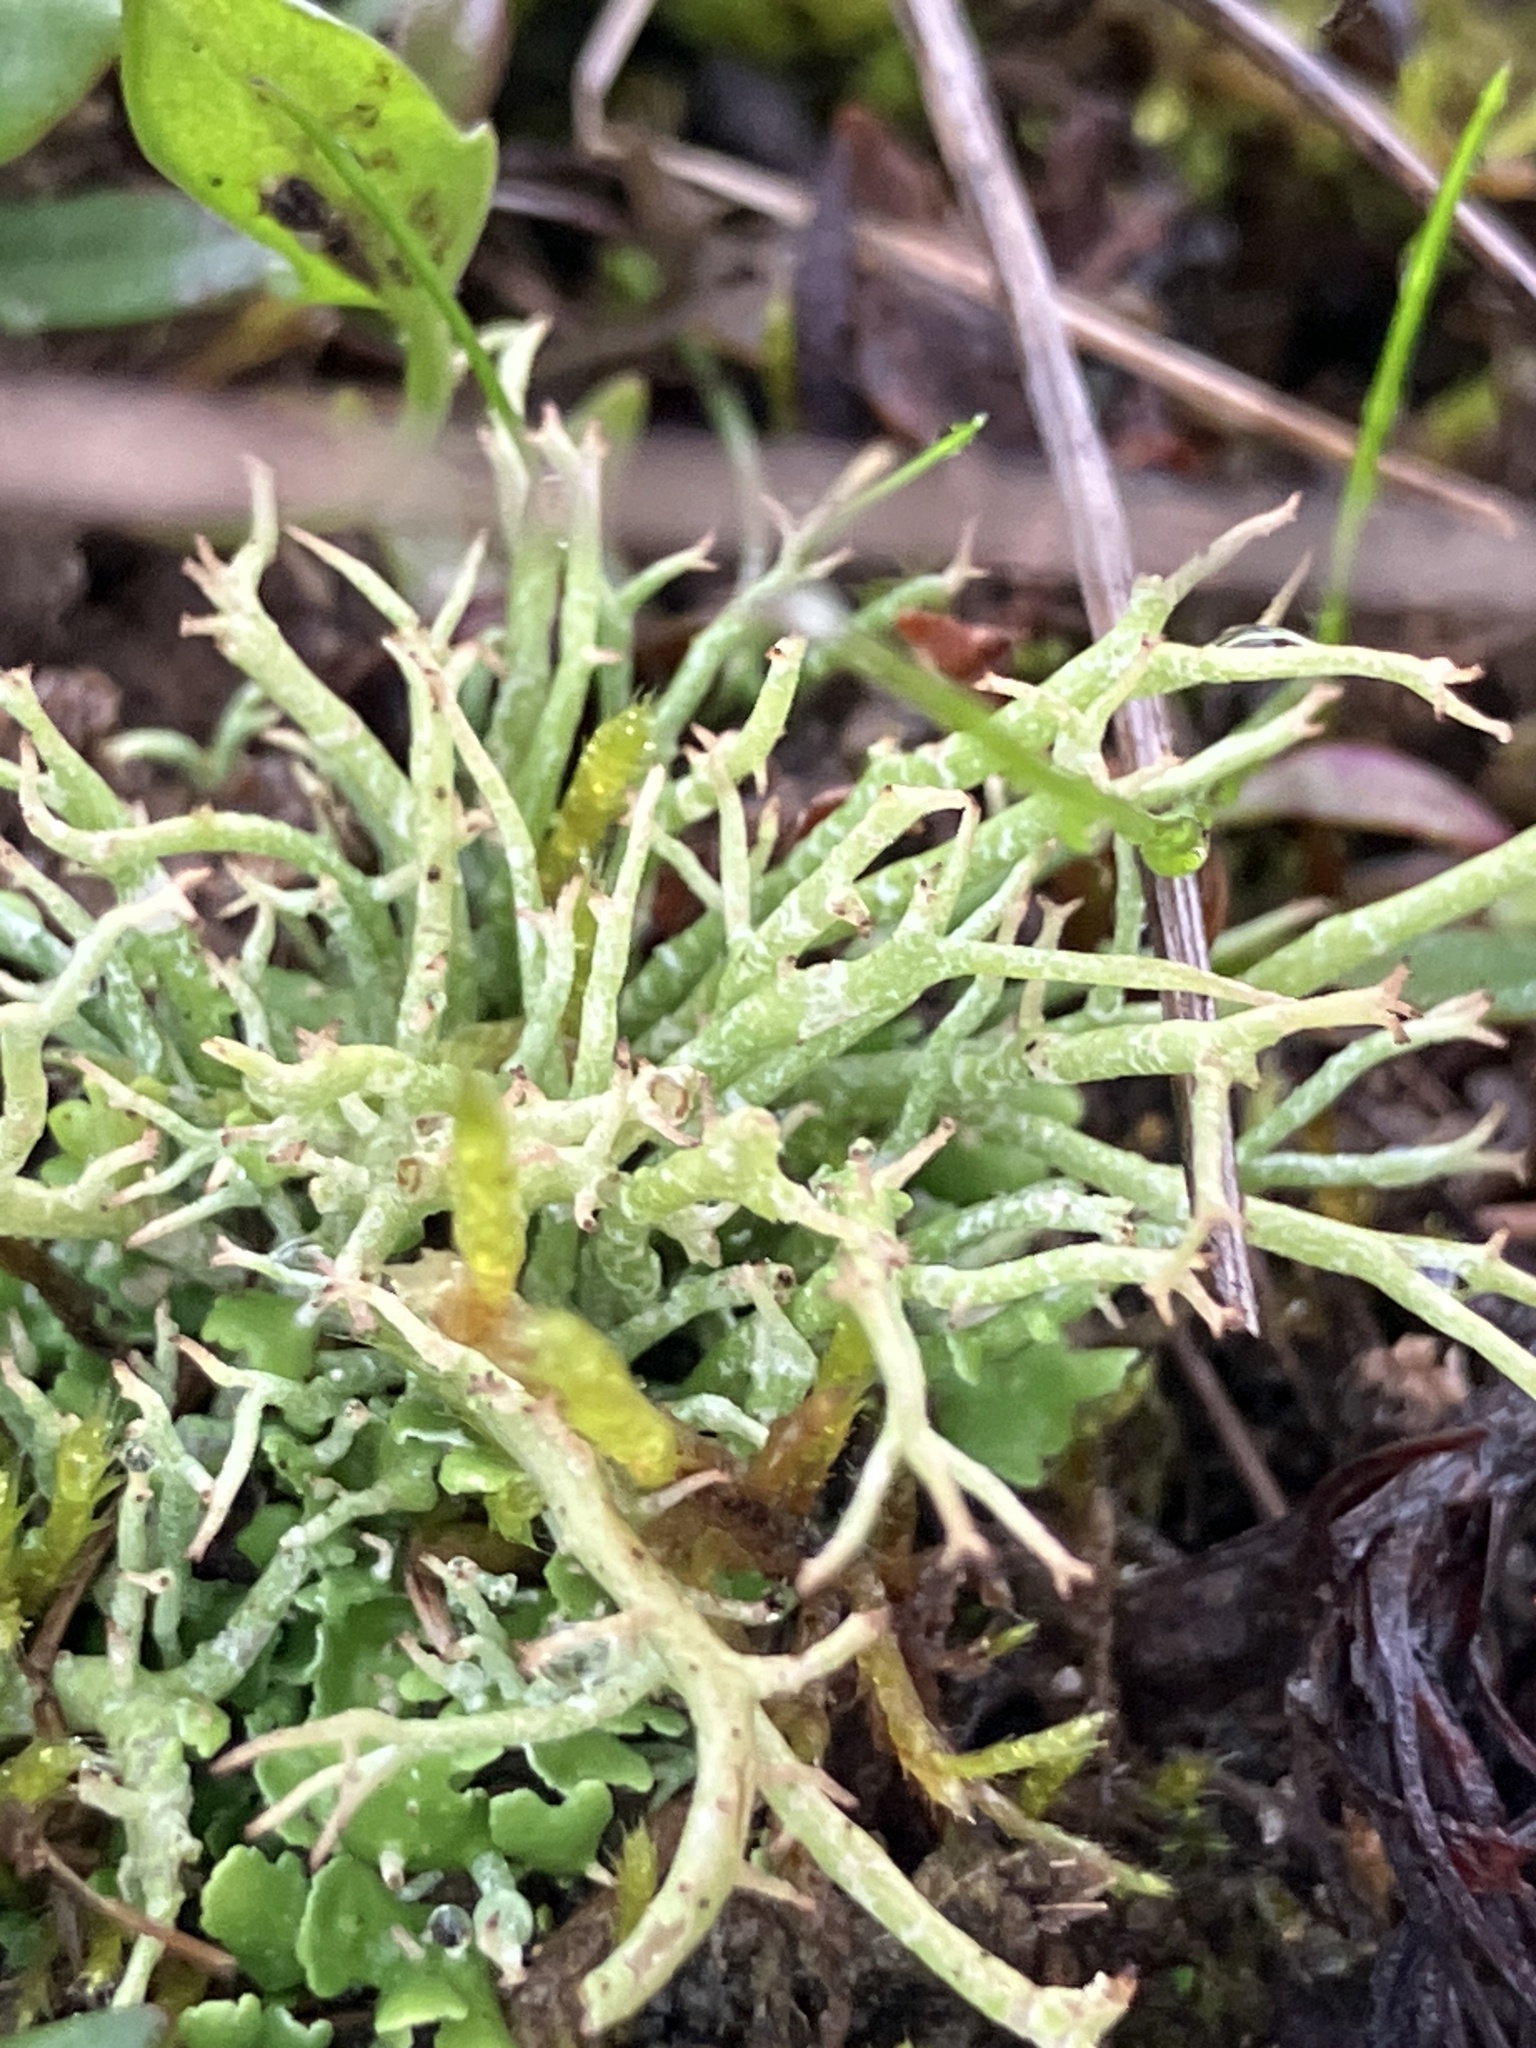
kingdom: Fungi
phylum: Ascomycota
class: Lecanoromycetes
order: Lecanorales
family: Cladoniaceae
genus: Cladonia
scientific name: Cladonia furcata
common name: Many-forked cladonia
